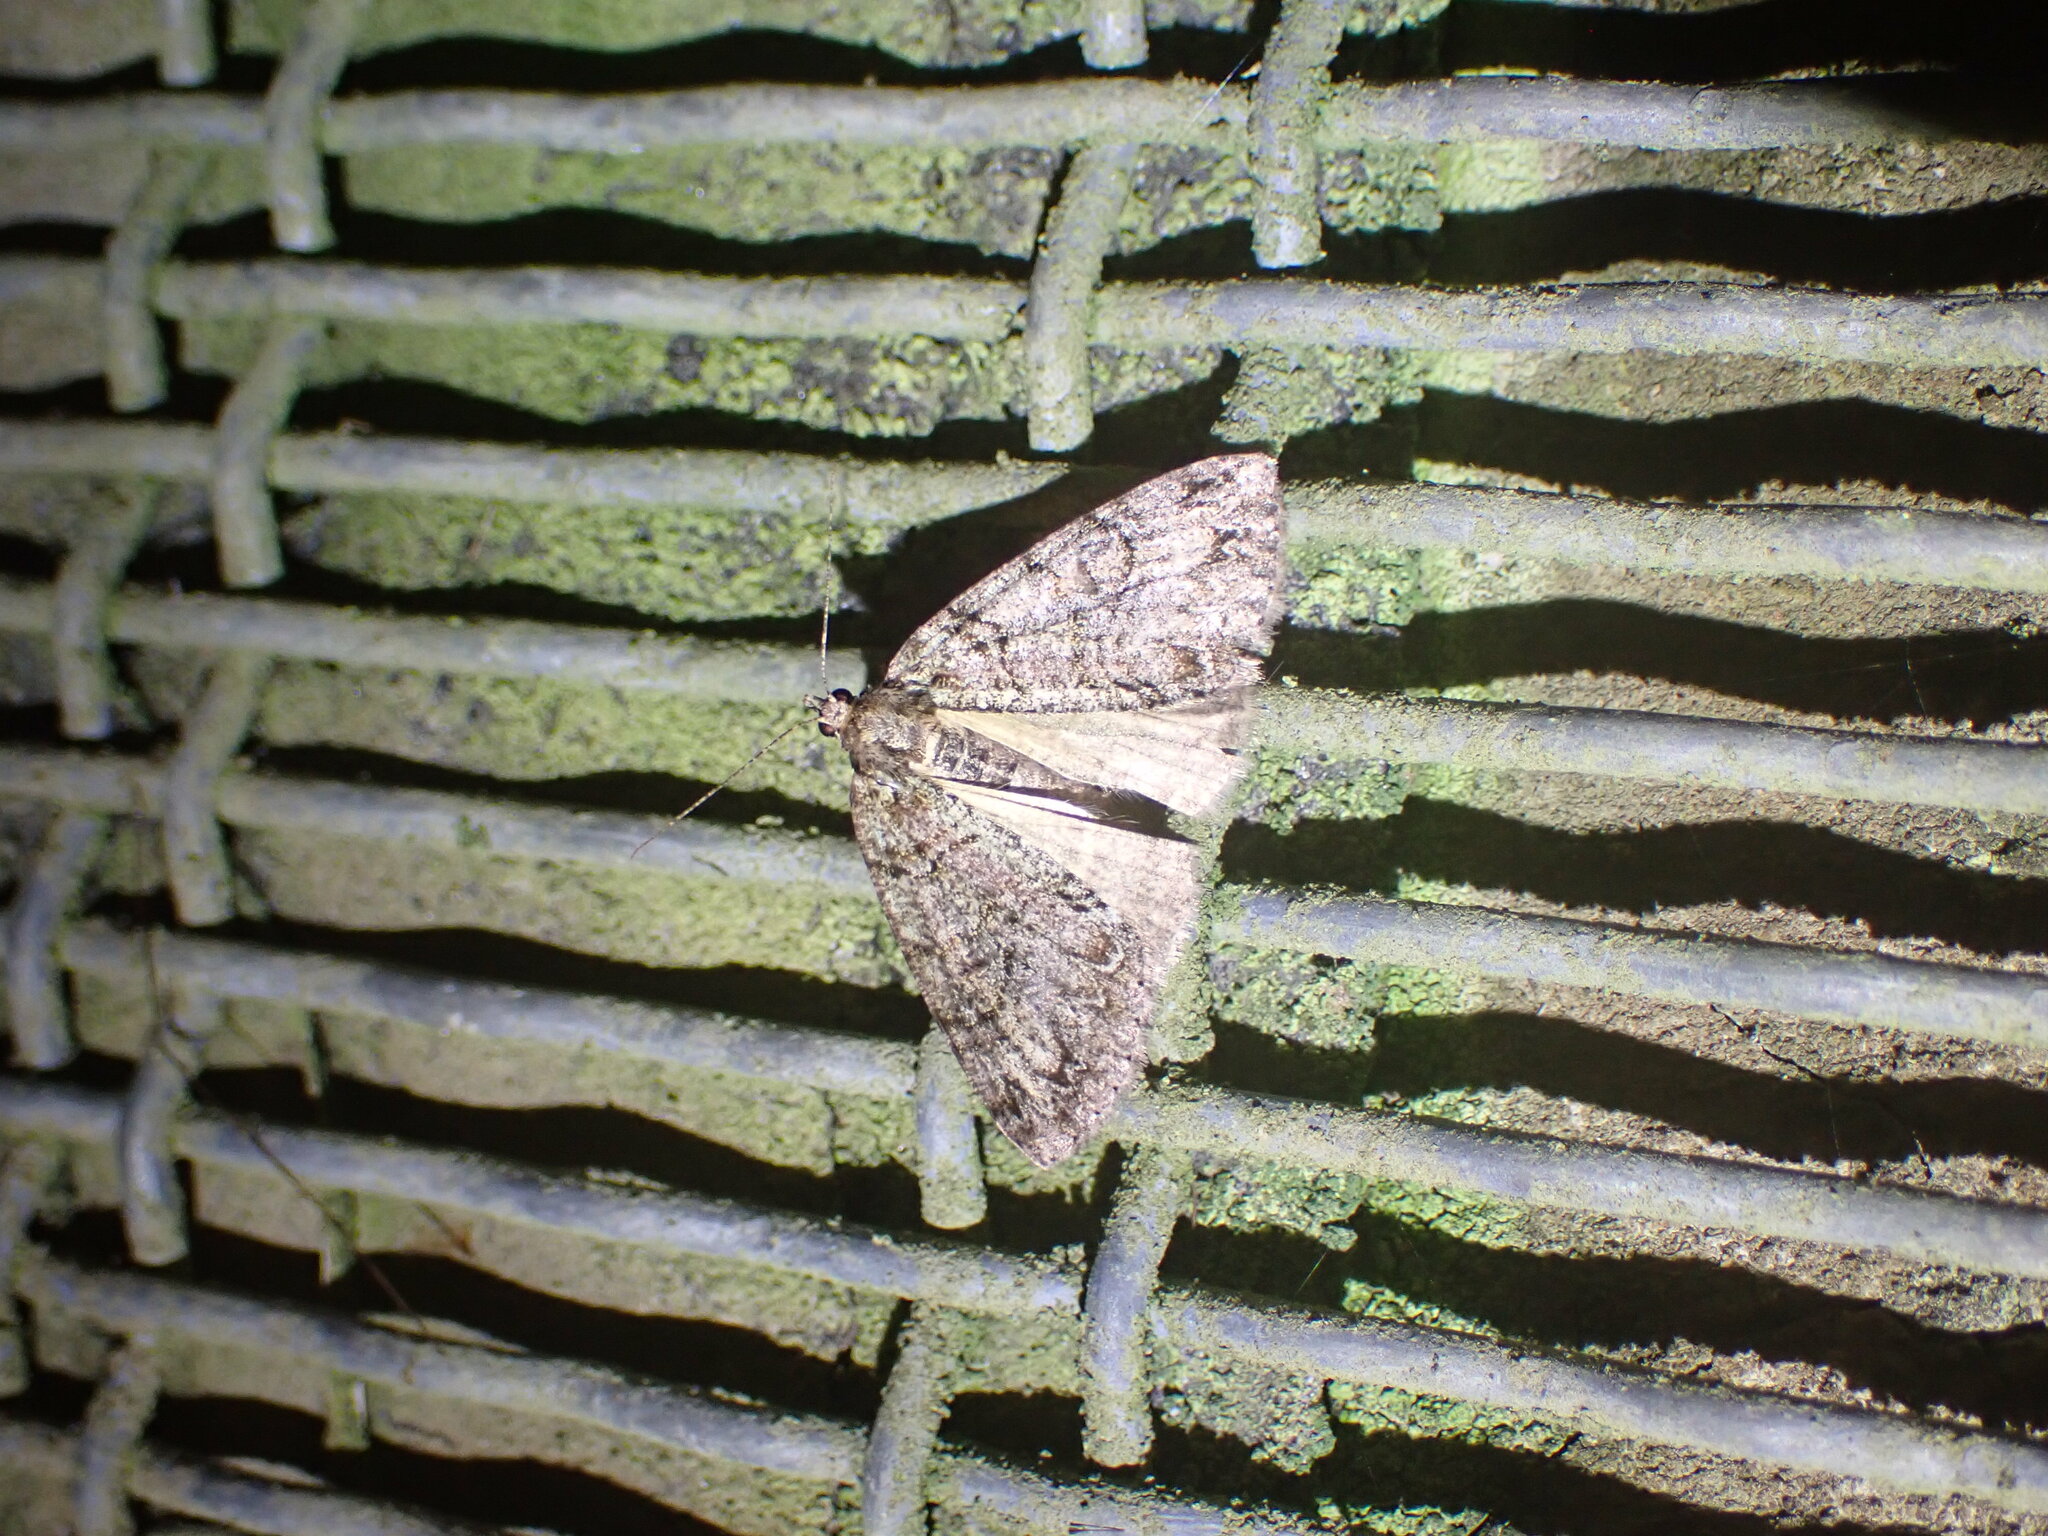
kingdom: Animalia
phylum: Arthropoda
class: Insecta
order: Lepidoptera
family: Geometridae
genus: Pseudocoremia
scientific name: Pseudocoremia suavis
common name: Common forest looper
